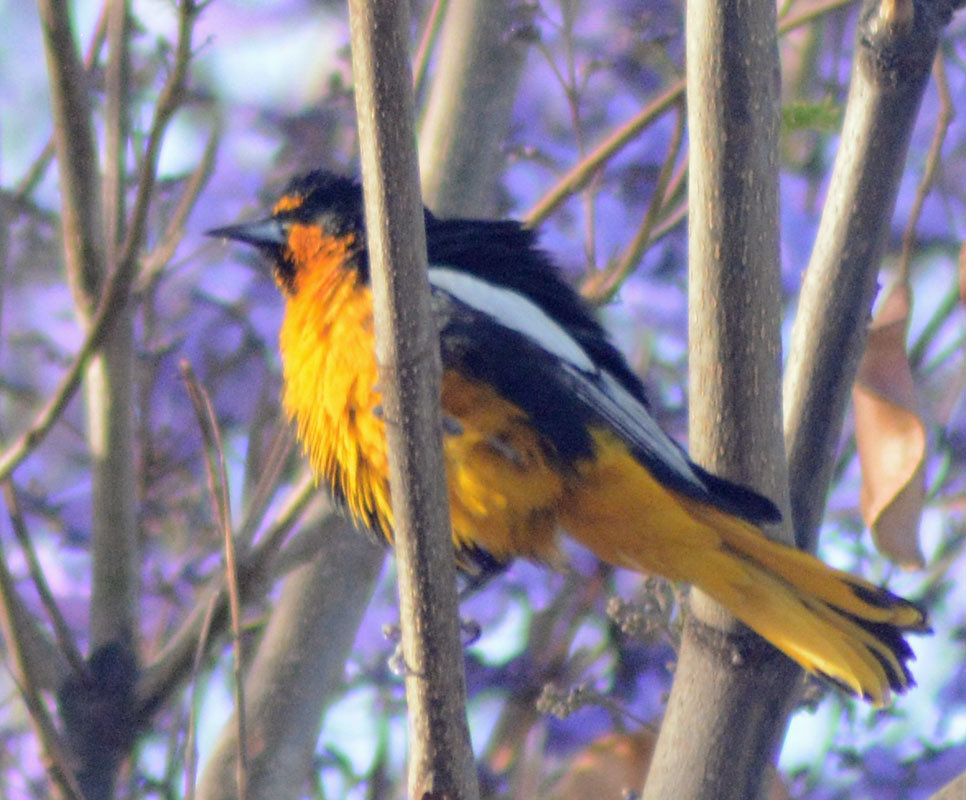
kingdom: Animalia
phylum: Chordata
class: Aves
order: Passeriformes
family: Icteridae
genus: Icterus
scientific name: Icterus abeillei
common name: Black-backed oriole
